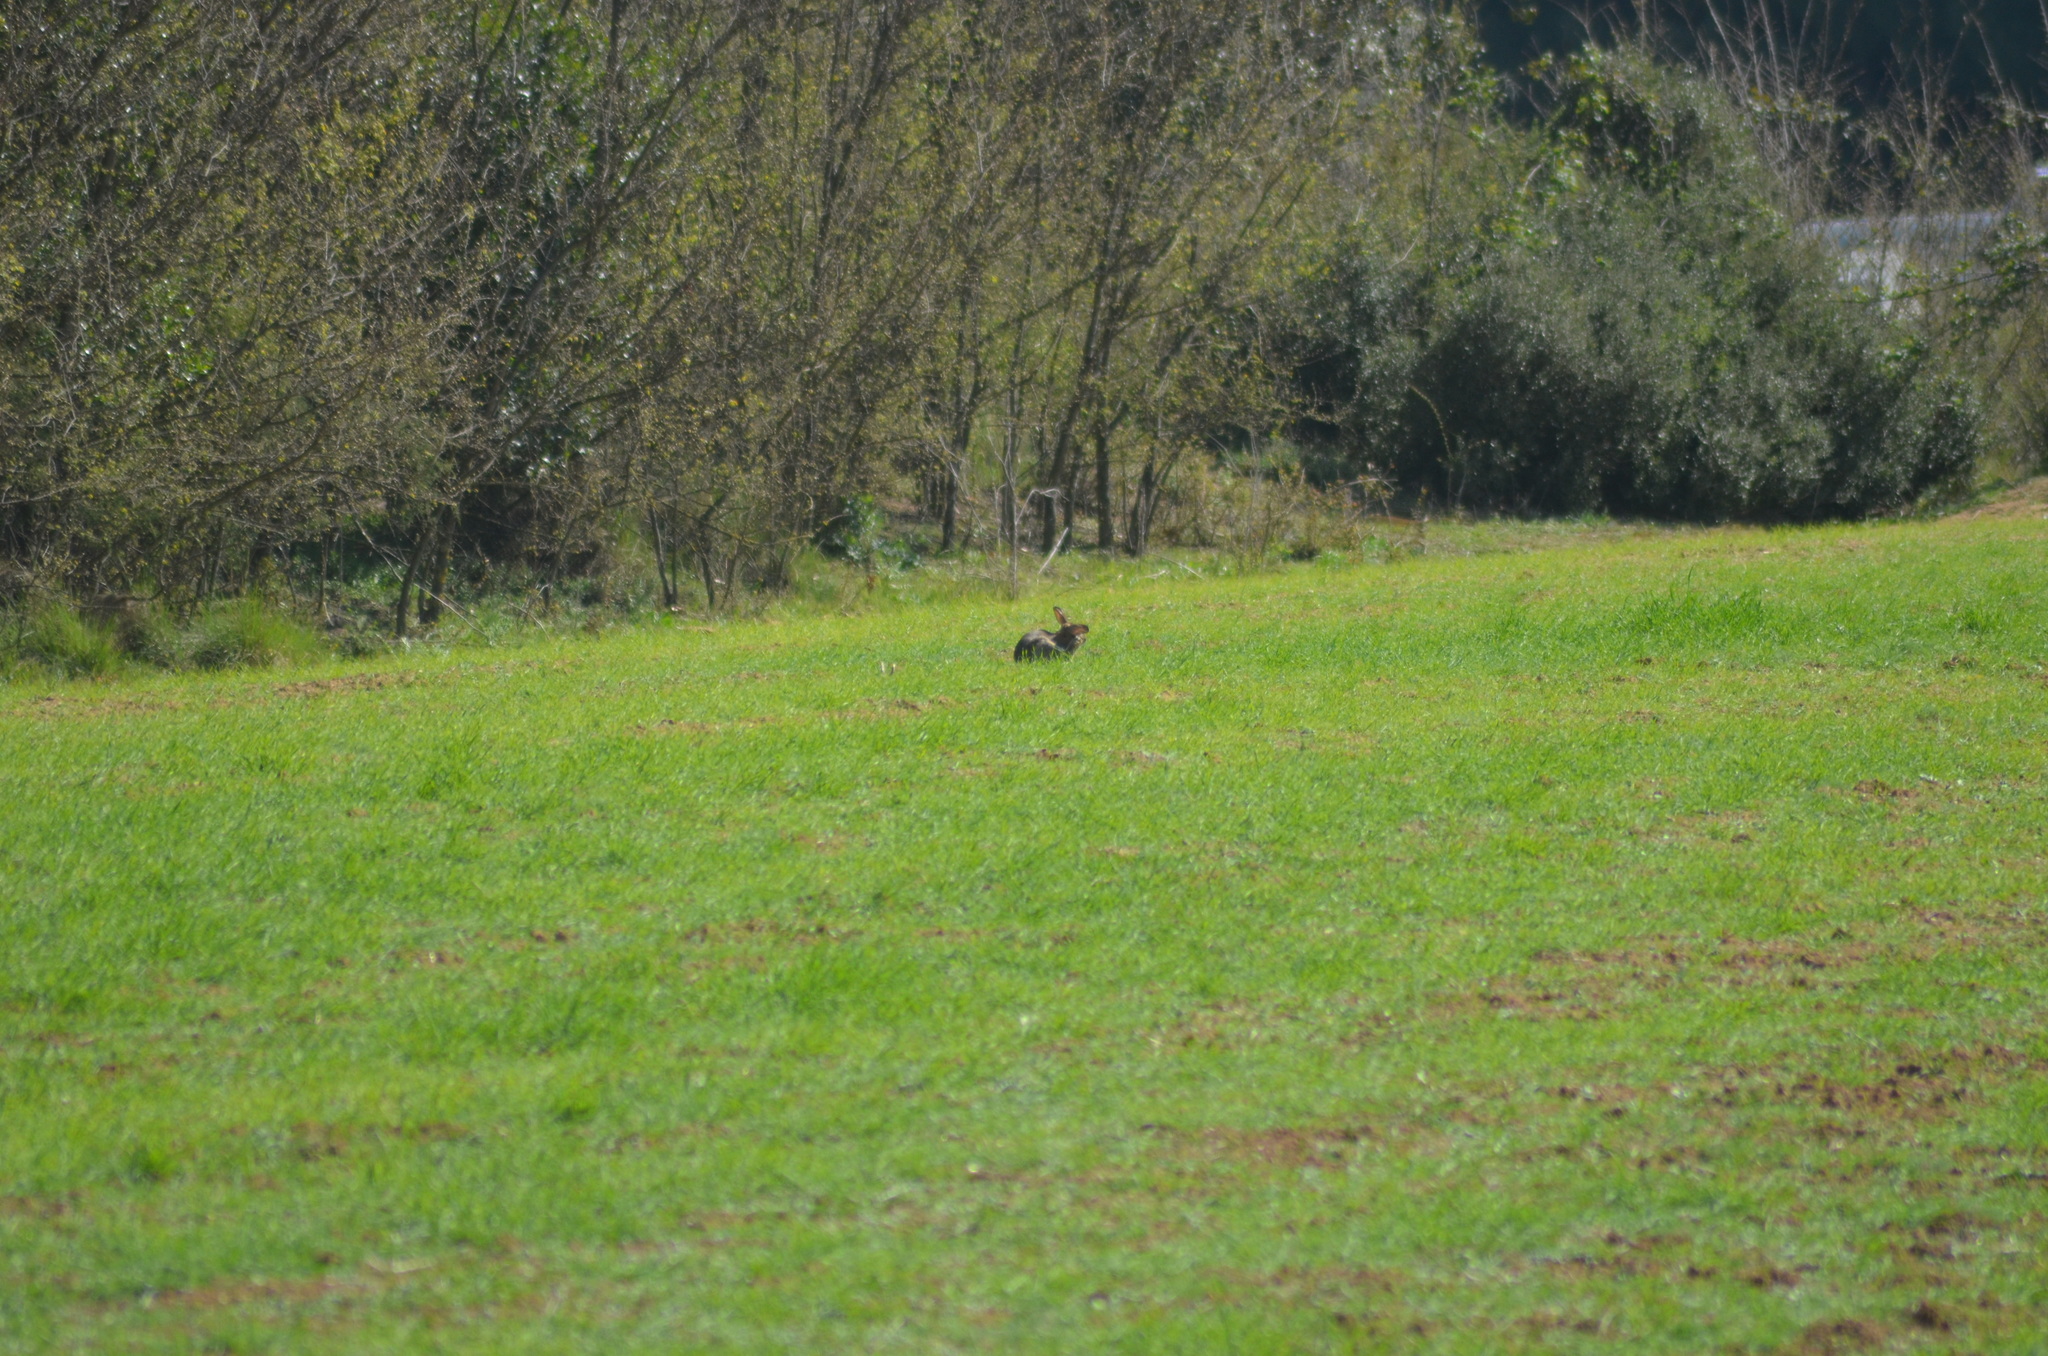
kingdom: Animalia
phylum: Chordata
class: Mammalia
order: Lagomorpha
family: Leporidae
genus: Oryctolagus
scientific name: Oryctolagus cuniculus
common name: European rabbit
